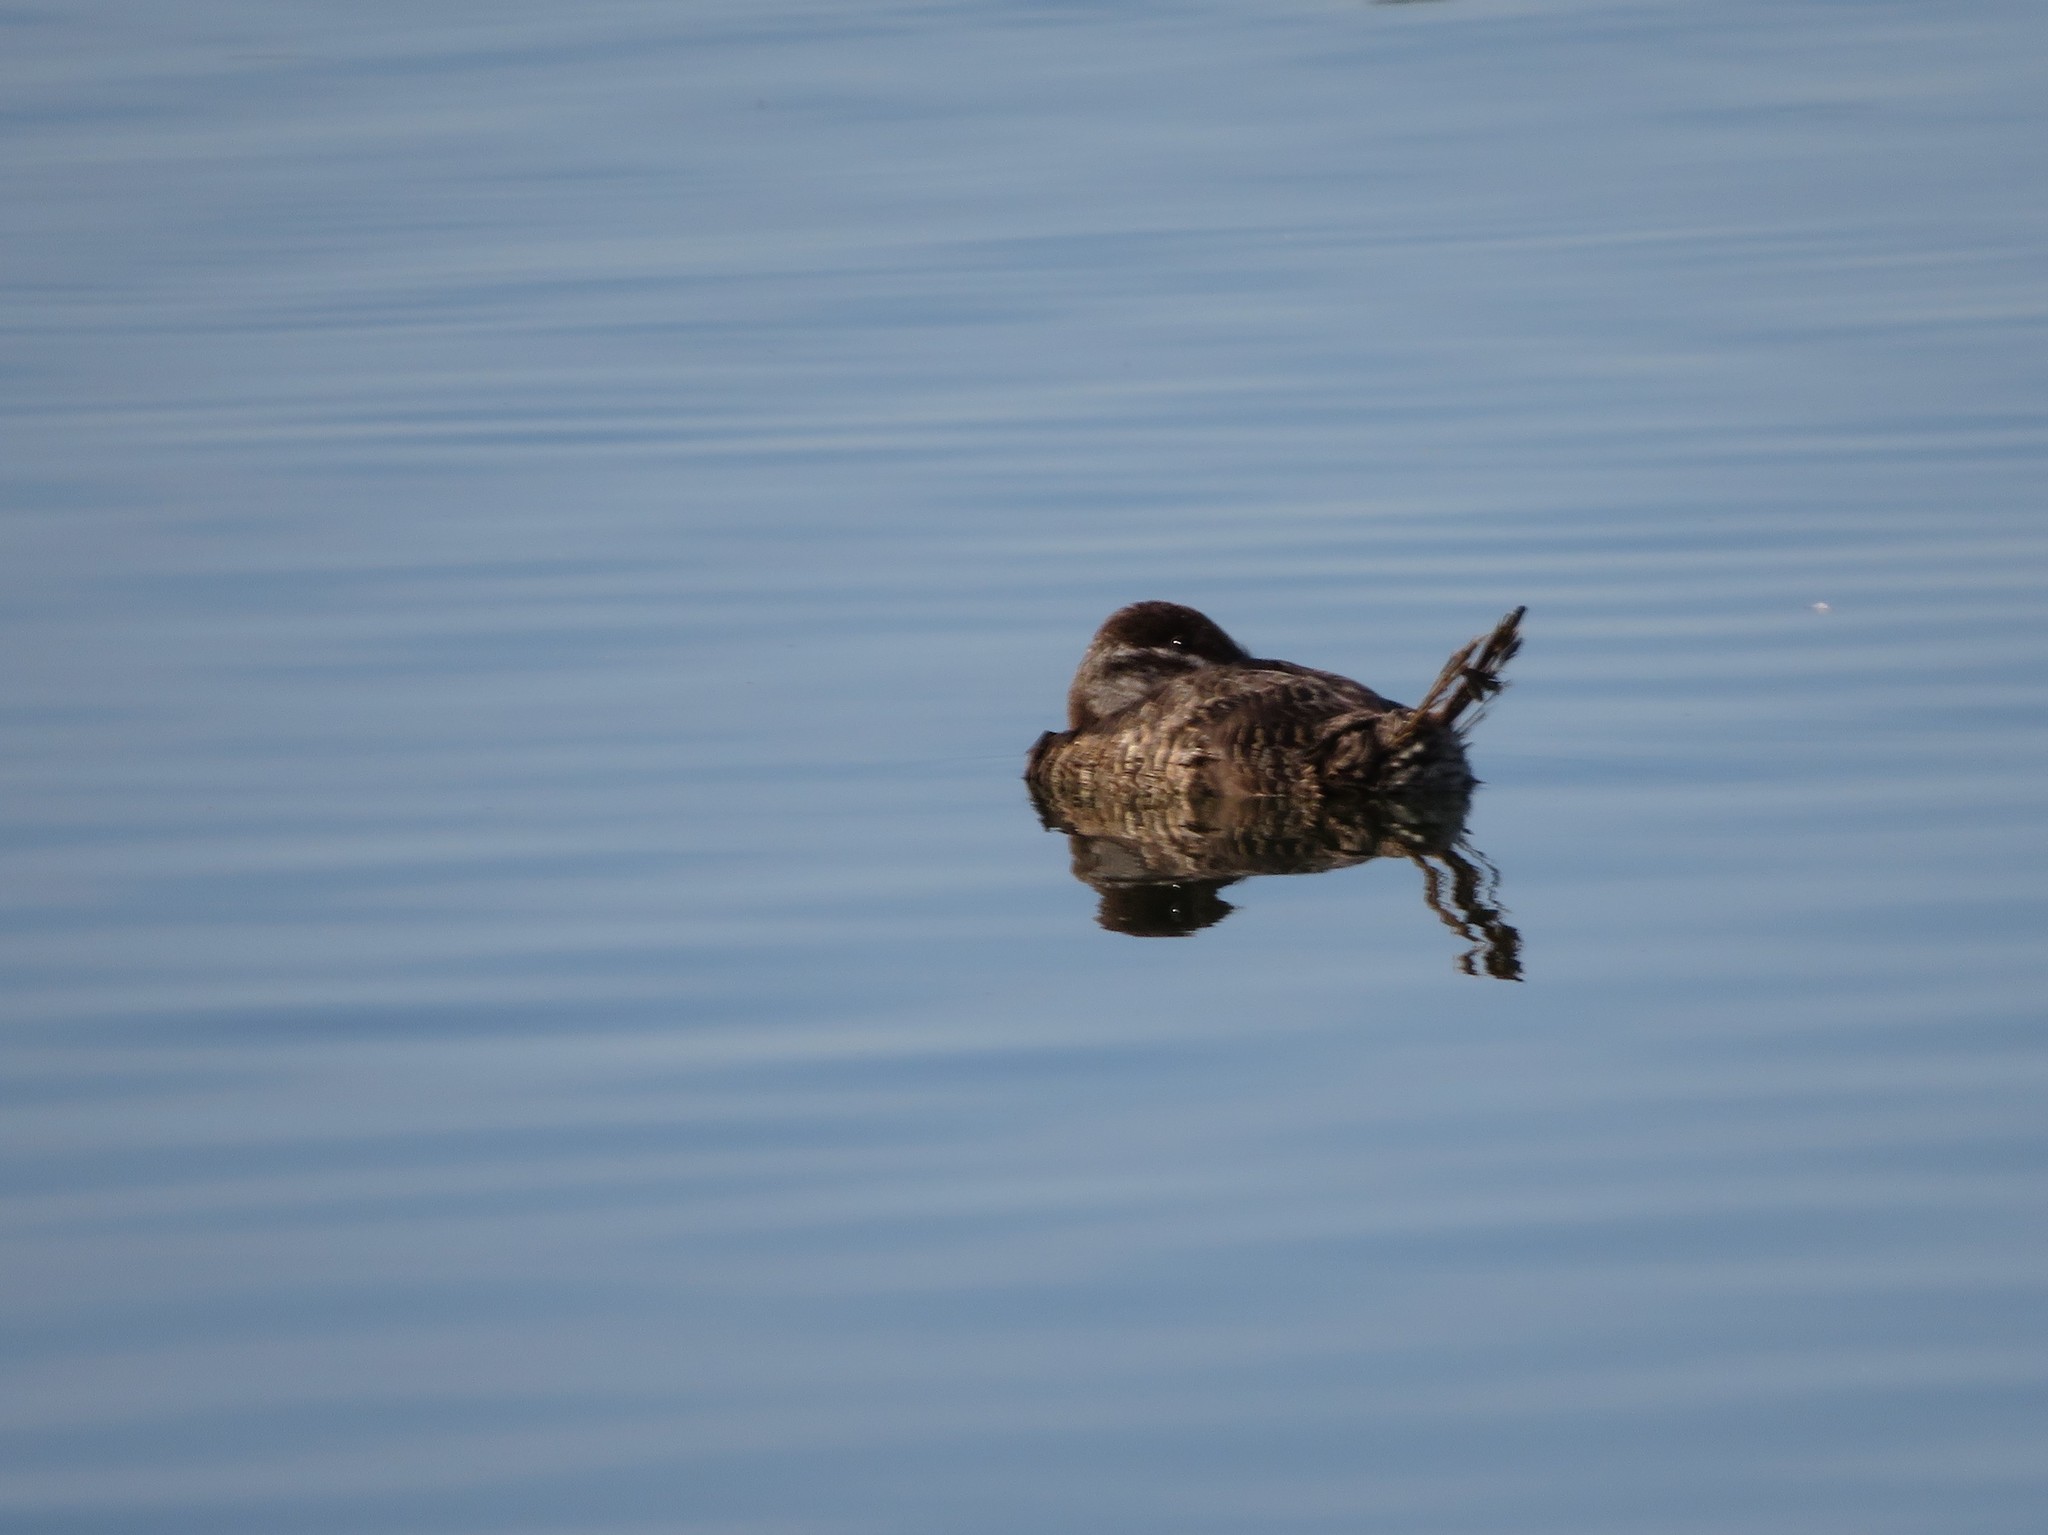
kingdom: Animalia
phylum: Chordata
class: Aves
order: Anseriformes
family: Anatidae
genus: Oxyura
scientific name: Oxyura vittata
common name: Lake duck
